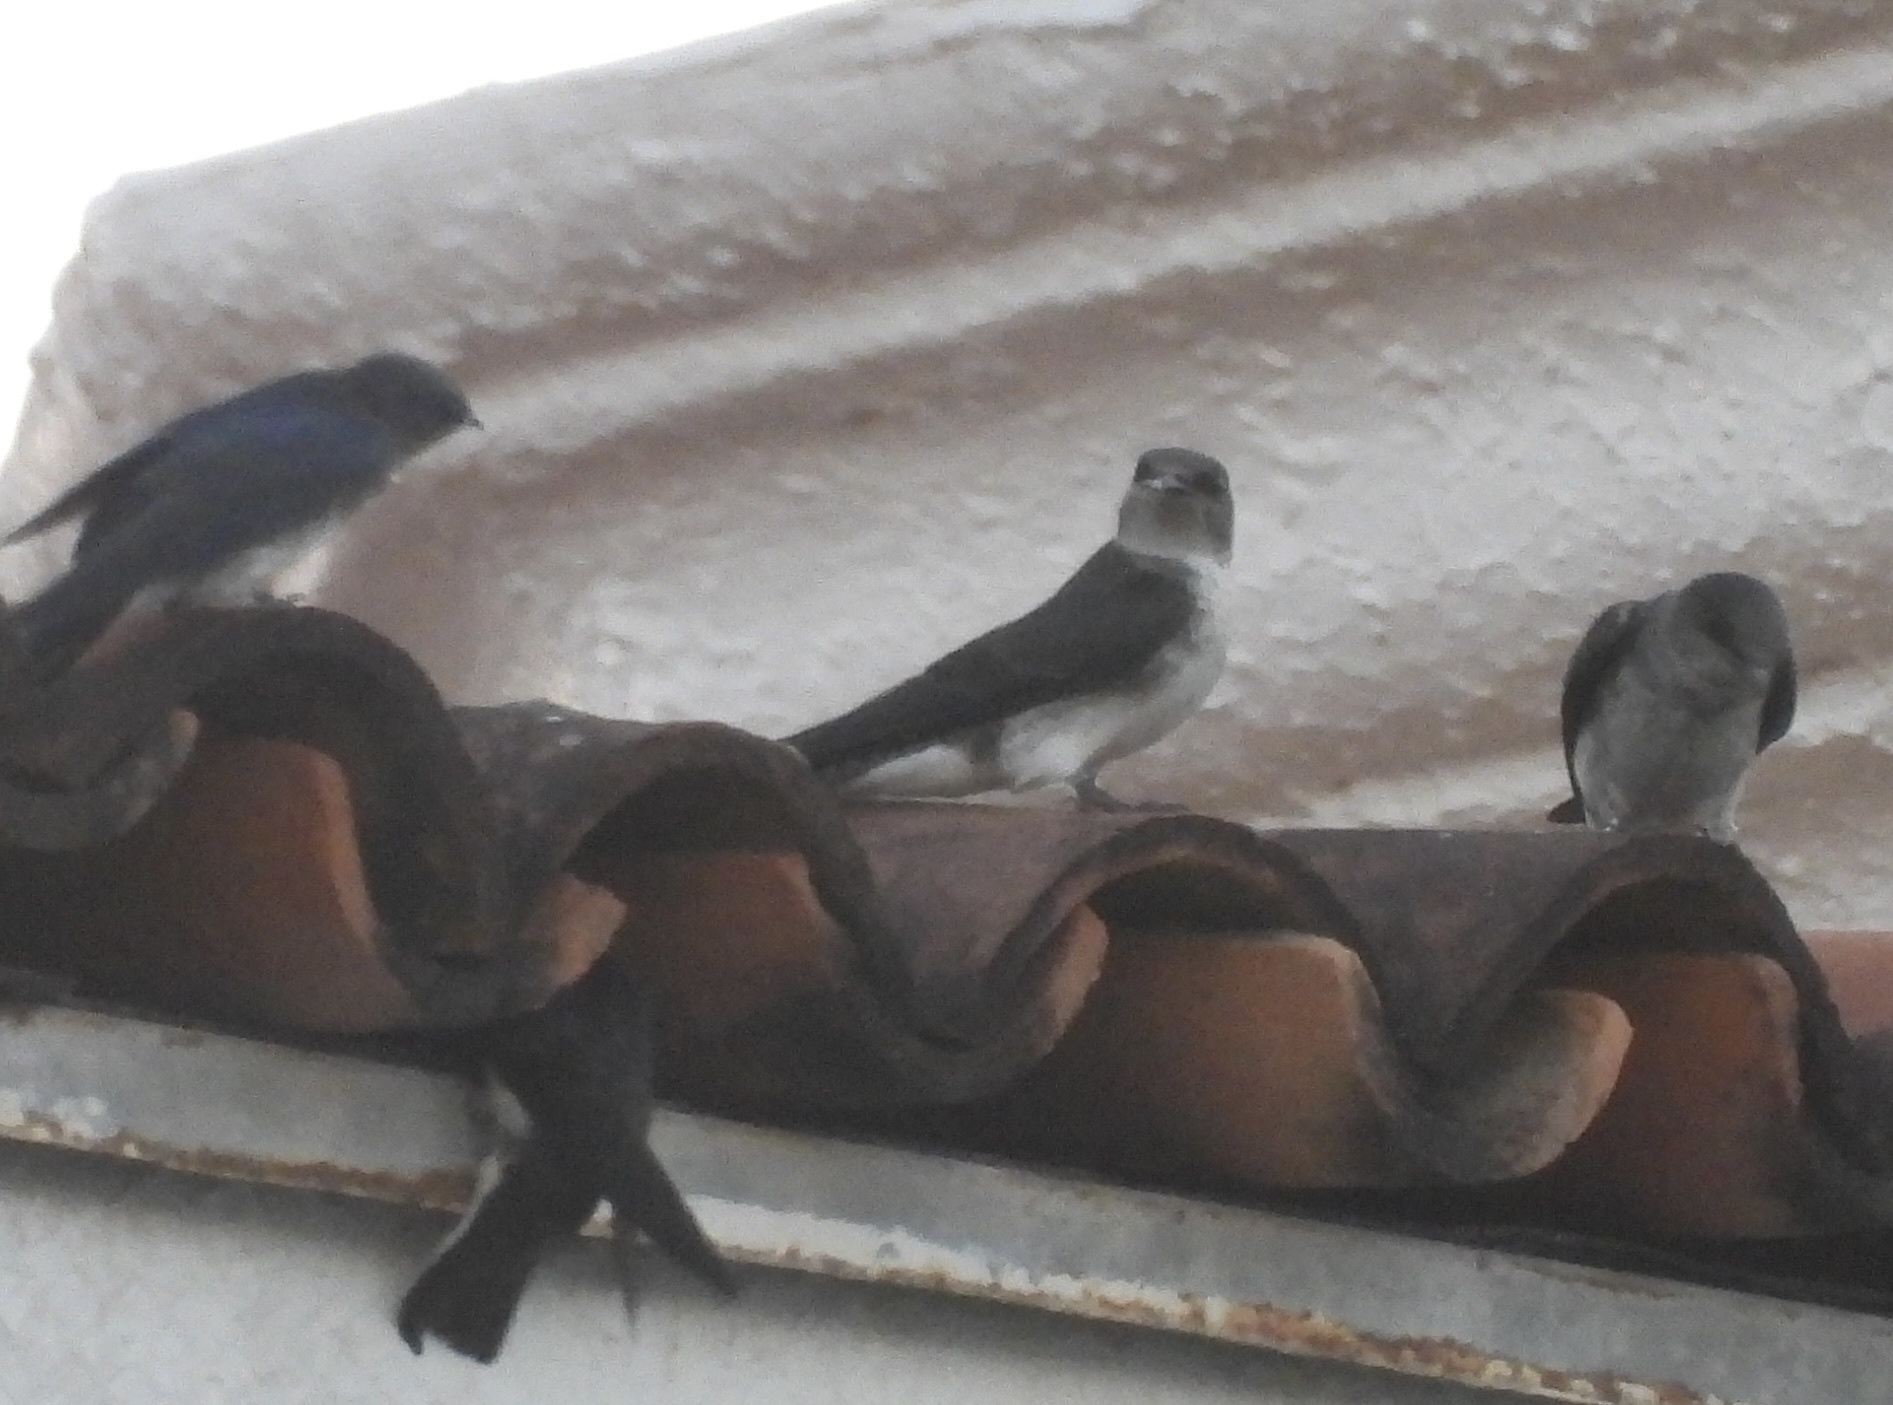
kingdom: Animalia
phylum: Chordata
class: Aves
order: Passeriformes
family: Hirundinidae
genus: Progne
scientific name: Progne chalybea
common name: Grey-breasted martin
